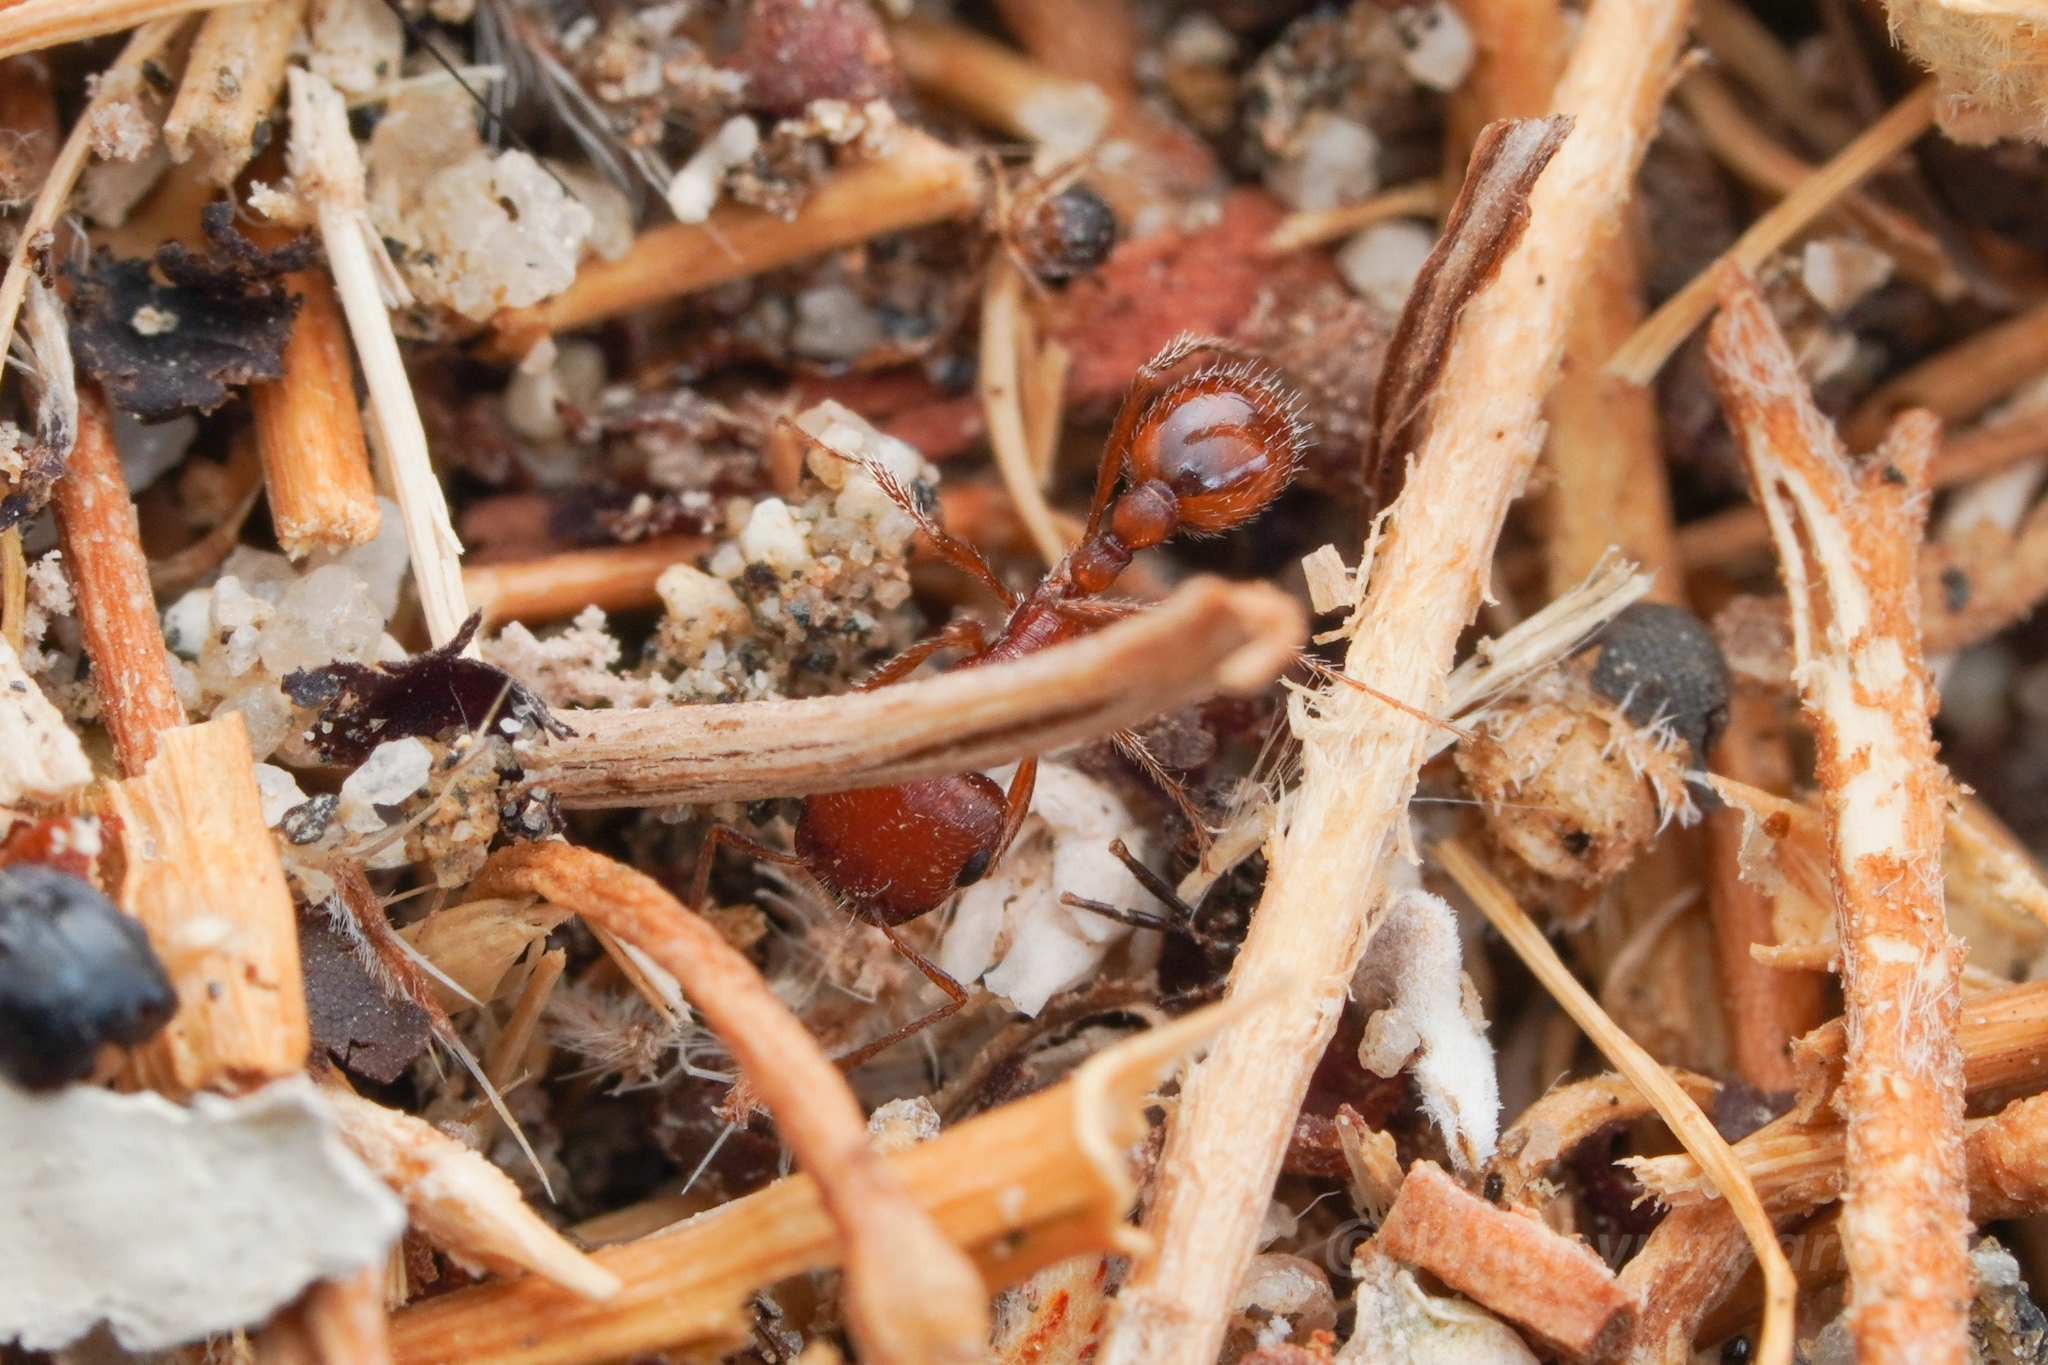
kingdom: Animalia
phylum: Arthropoda
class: Insecta
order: Hymenoptera
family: Formicidae
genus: Pogonomyrmex
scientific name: Pogonomyrmex magnacanthus
